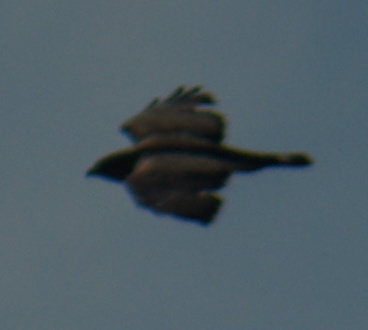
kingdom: Animalia
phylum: Chordata
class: Aves
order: Accipitriformes
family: Accipitridae
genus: Buteo
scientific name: Buteo platypterus
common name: Broad-winged hawk
